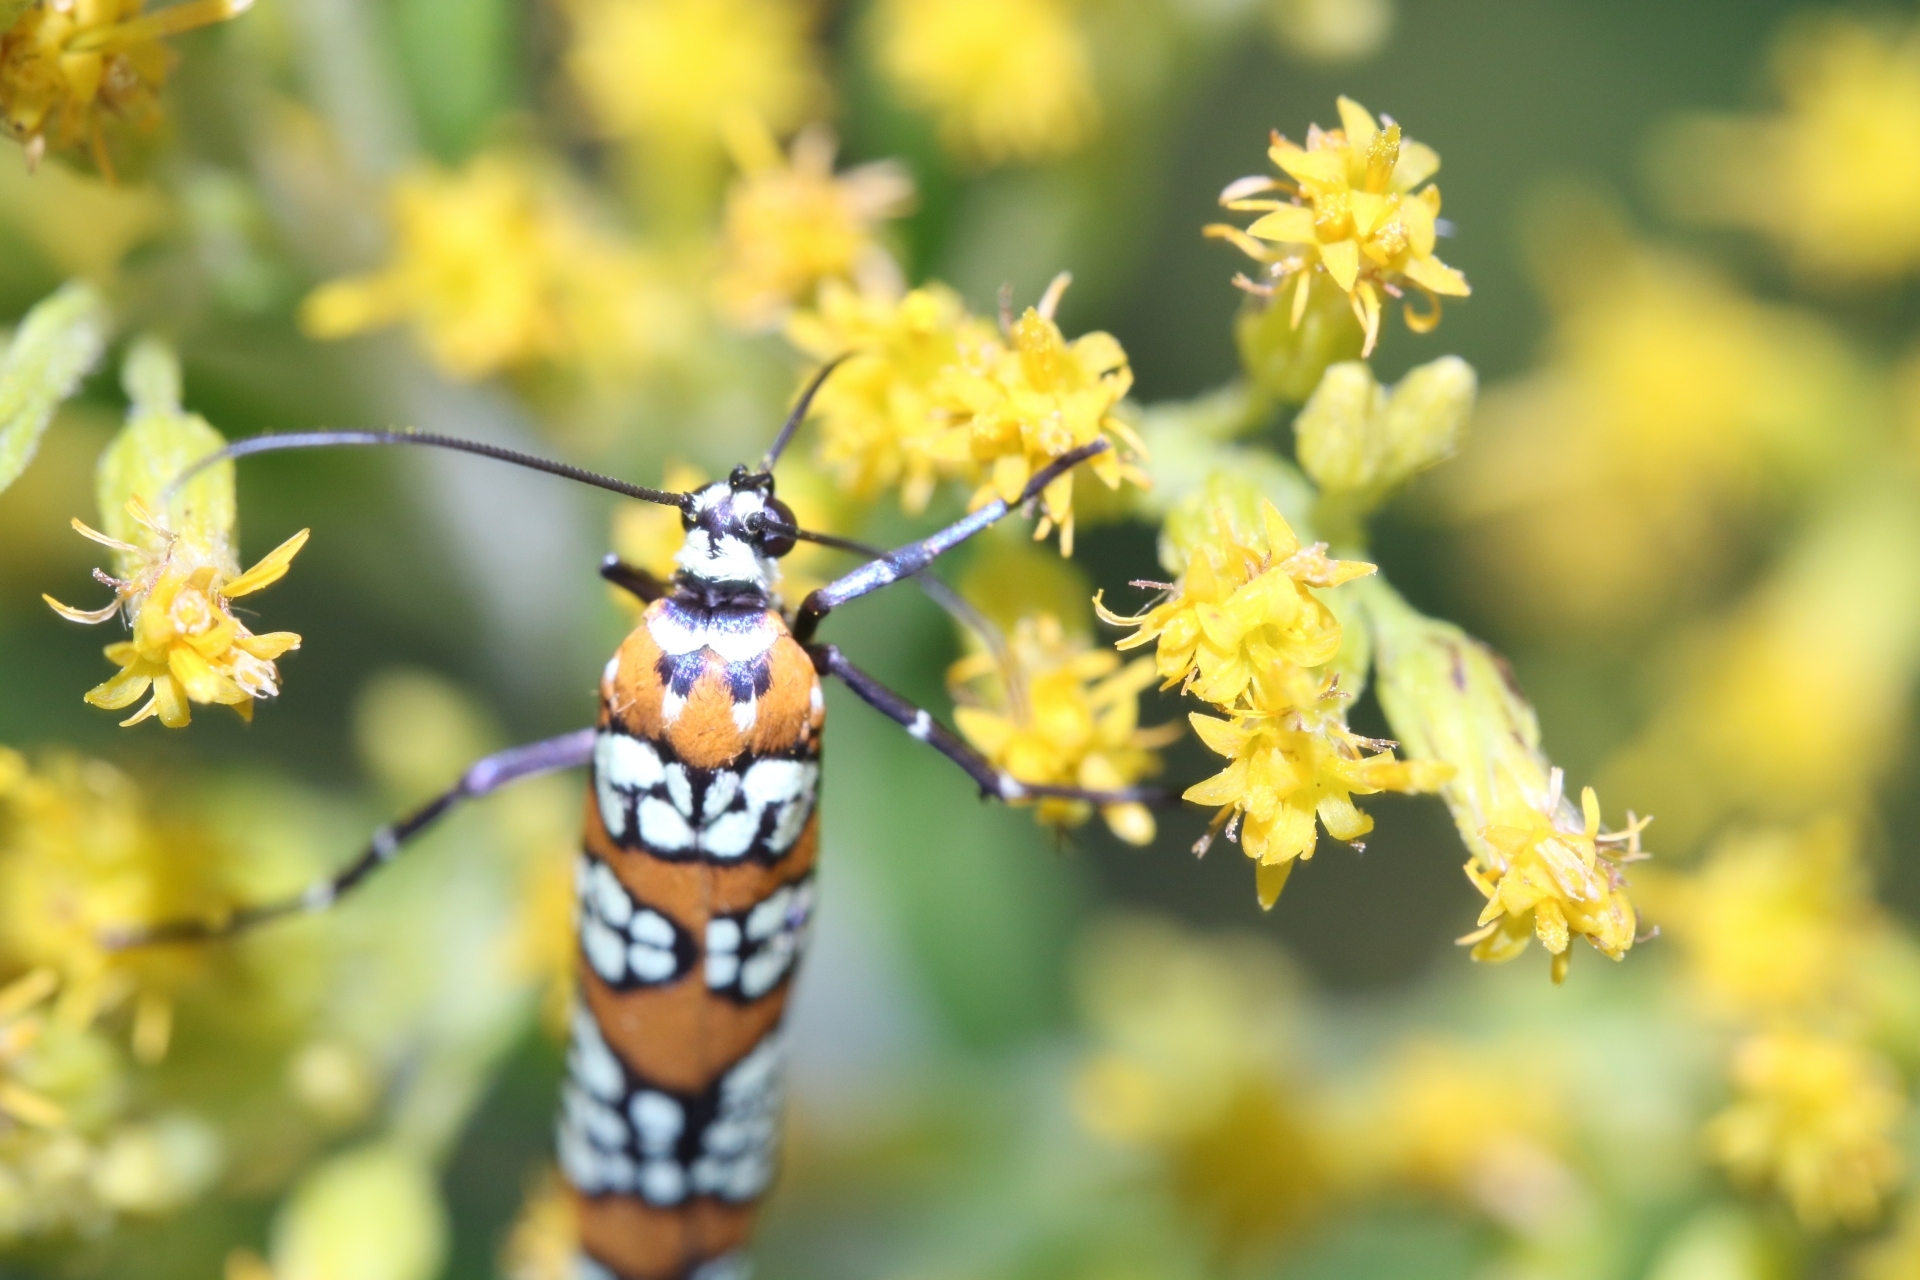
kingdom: Animalia
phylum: Arthropoda
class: Insecta
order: Lepidoptera
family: Attevidae
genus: Atteva
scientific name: Atteva punctella
